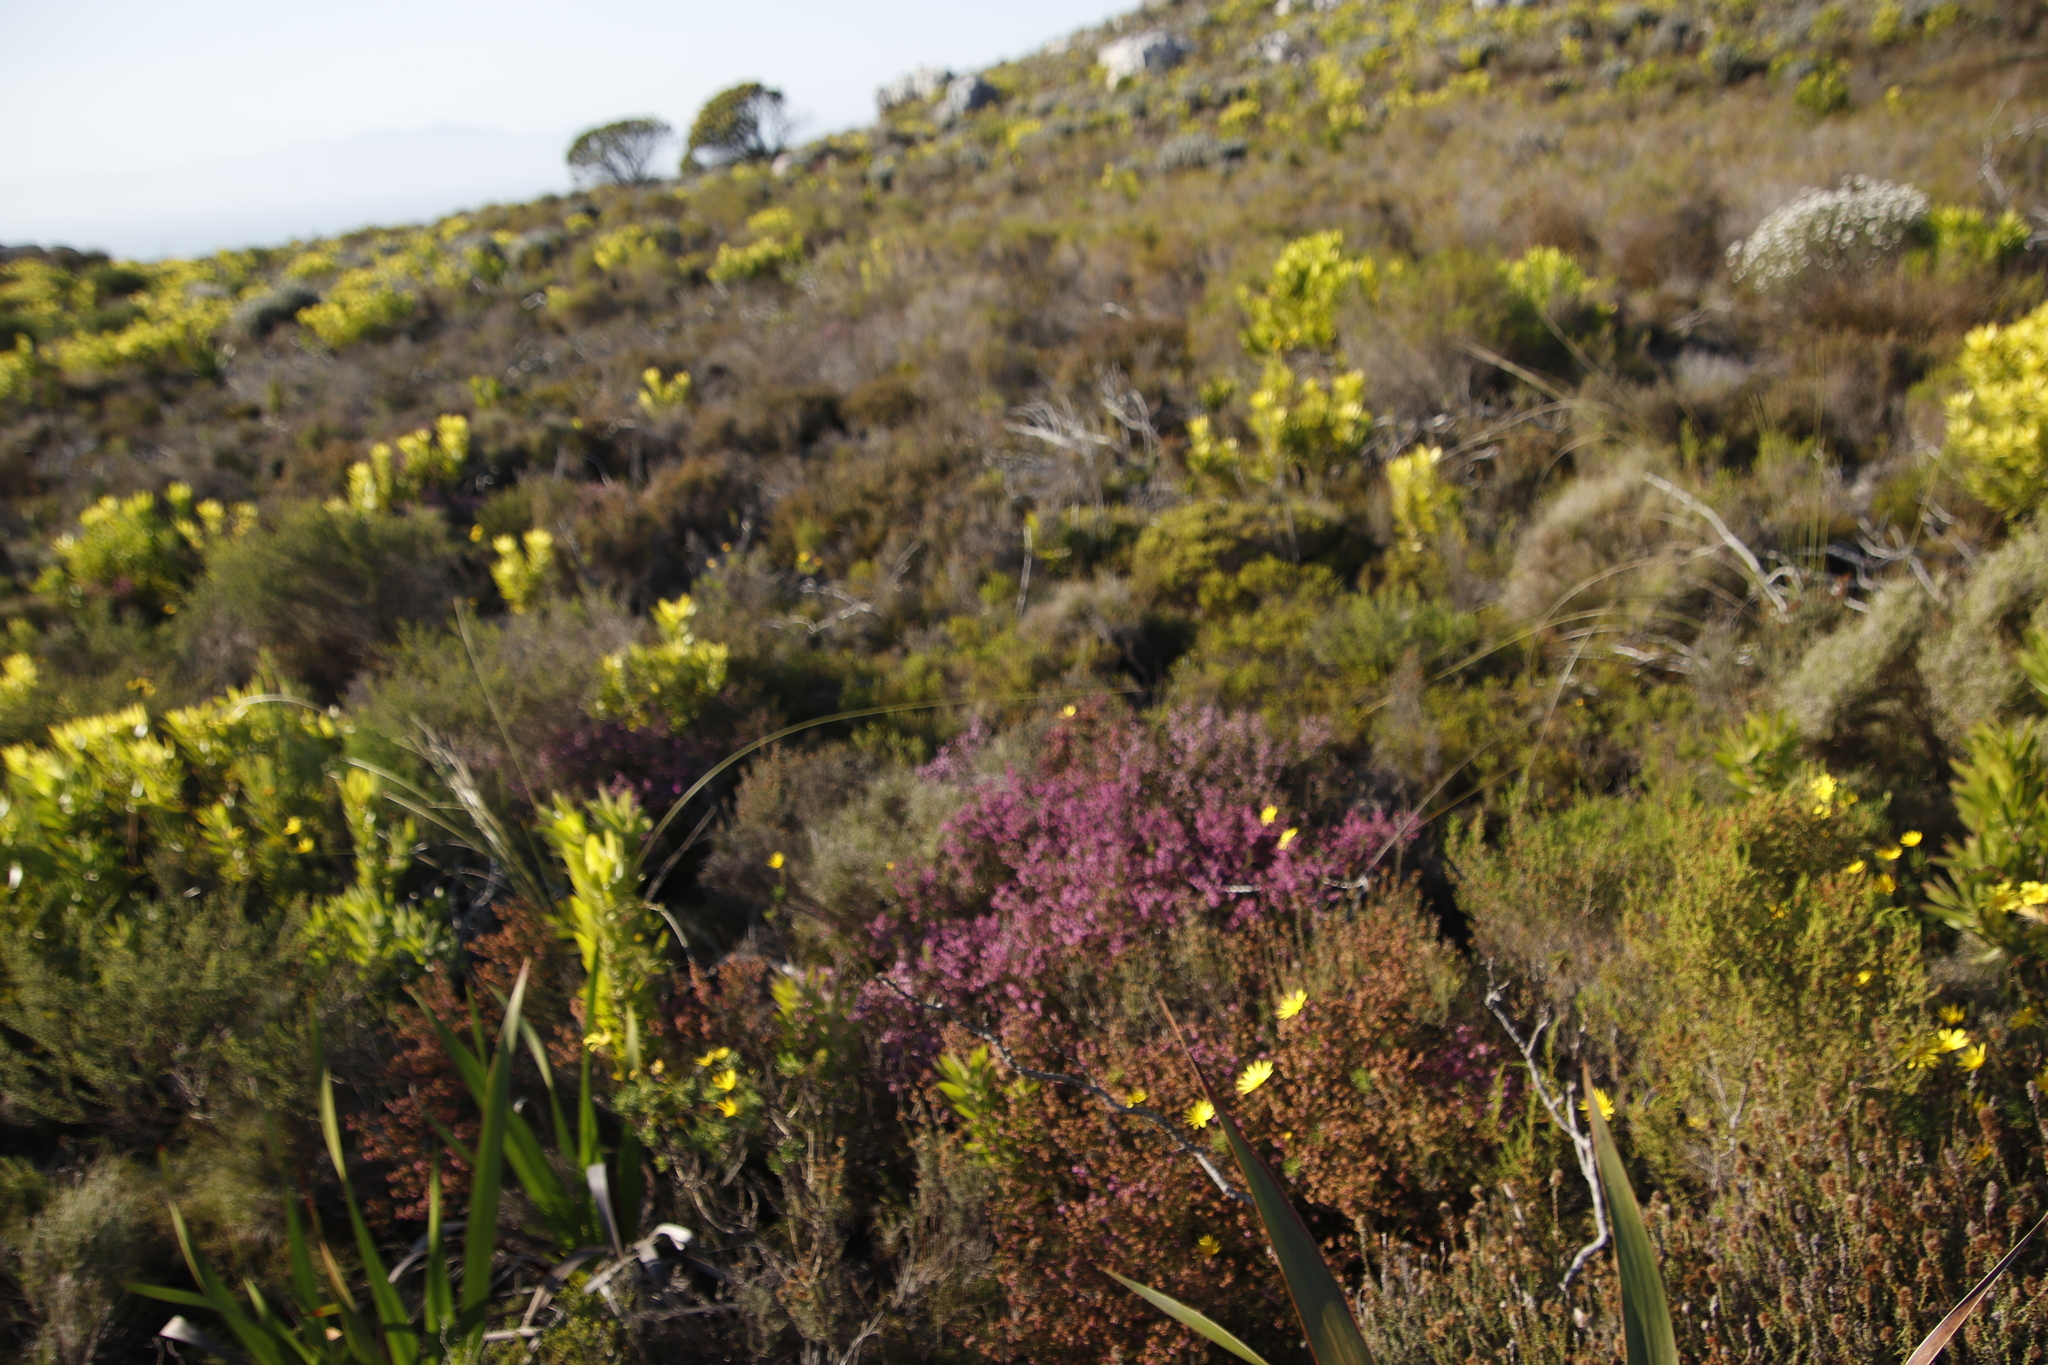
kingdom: Plantae
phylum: Tracheophyta
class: Magnoliopsida
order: Ericales
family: Ericaceae
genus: Erica
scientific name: Erica glabella
